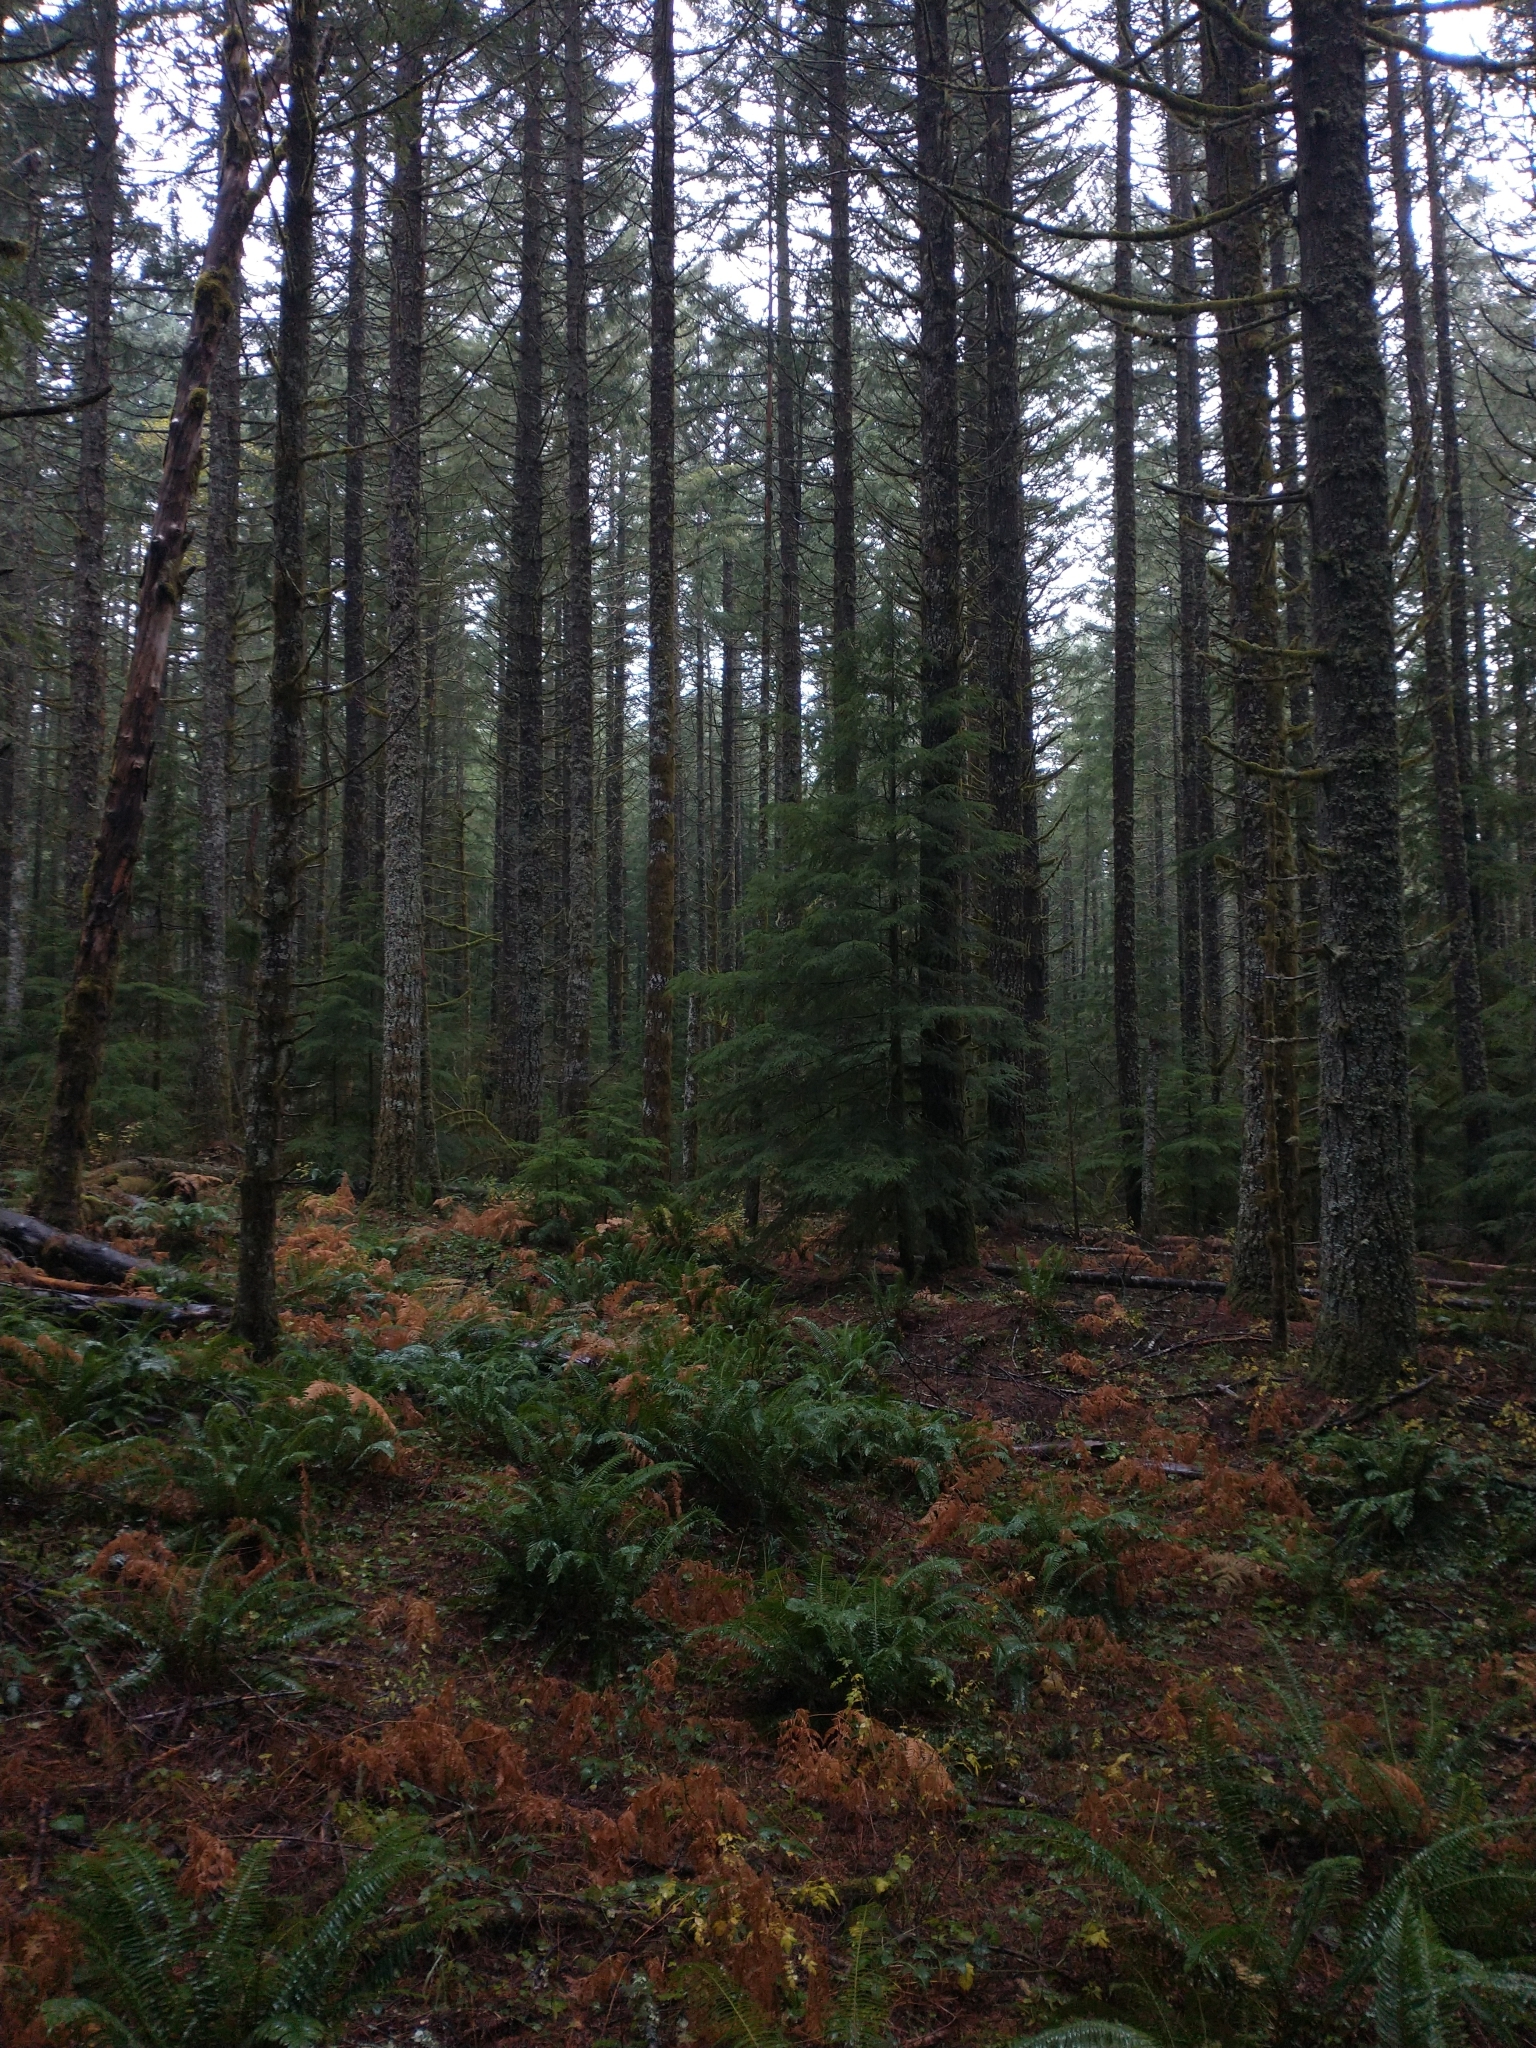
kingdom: Plantae
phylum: Tracheophyta
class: Pinopsida
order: Pinales
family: Pinaceae
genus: Pseudotsuga
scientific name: Pseudotsuga menziesii
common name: Douglas fir
